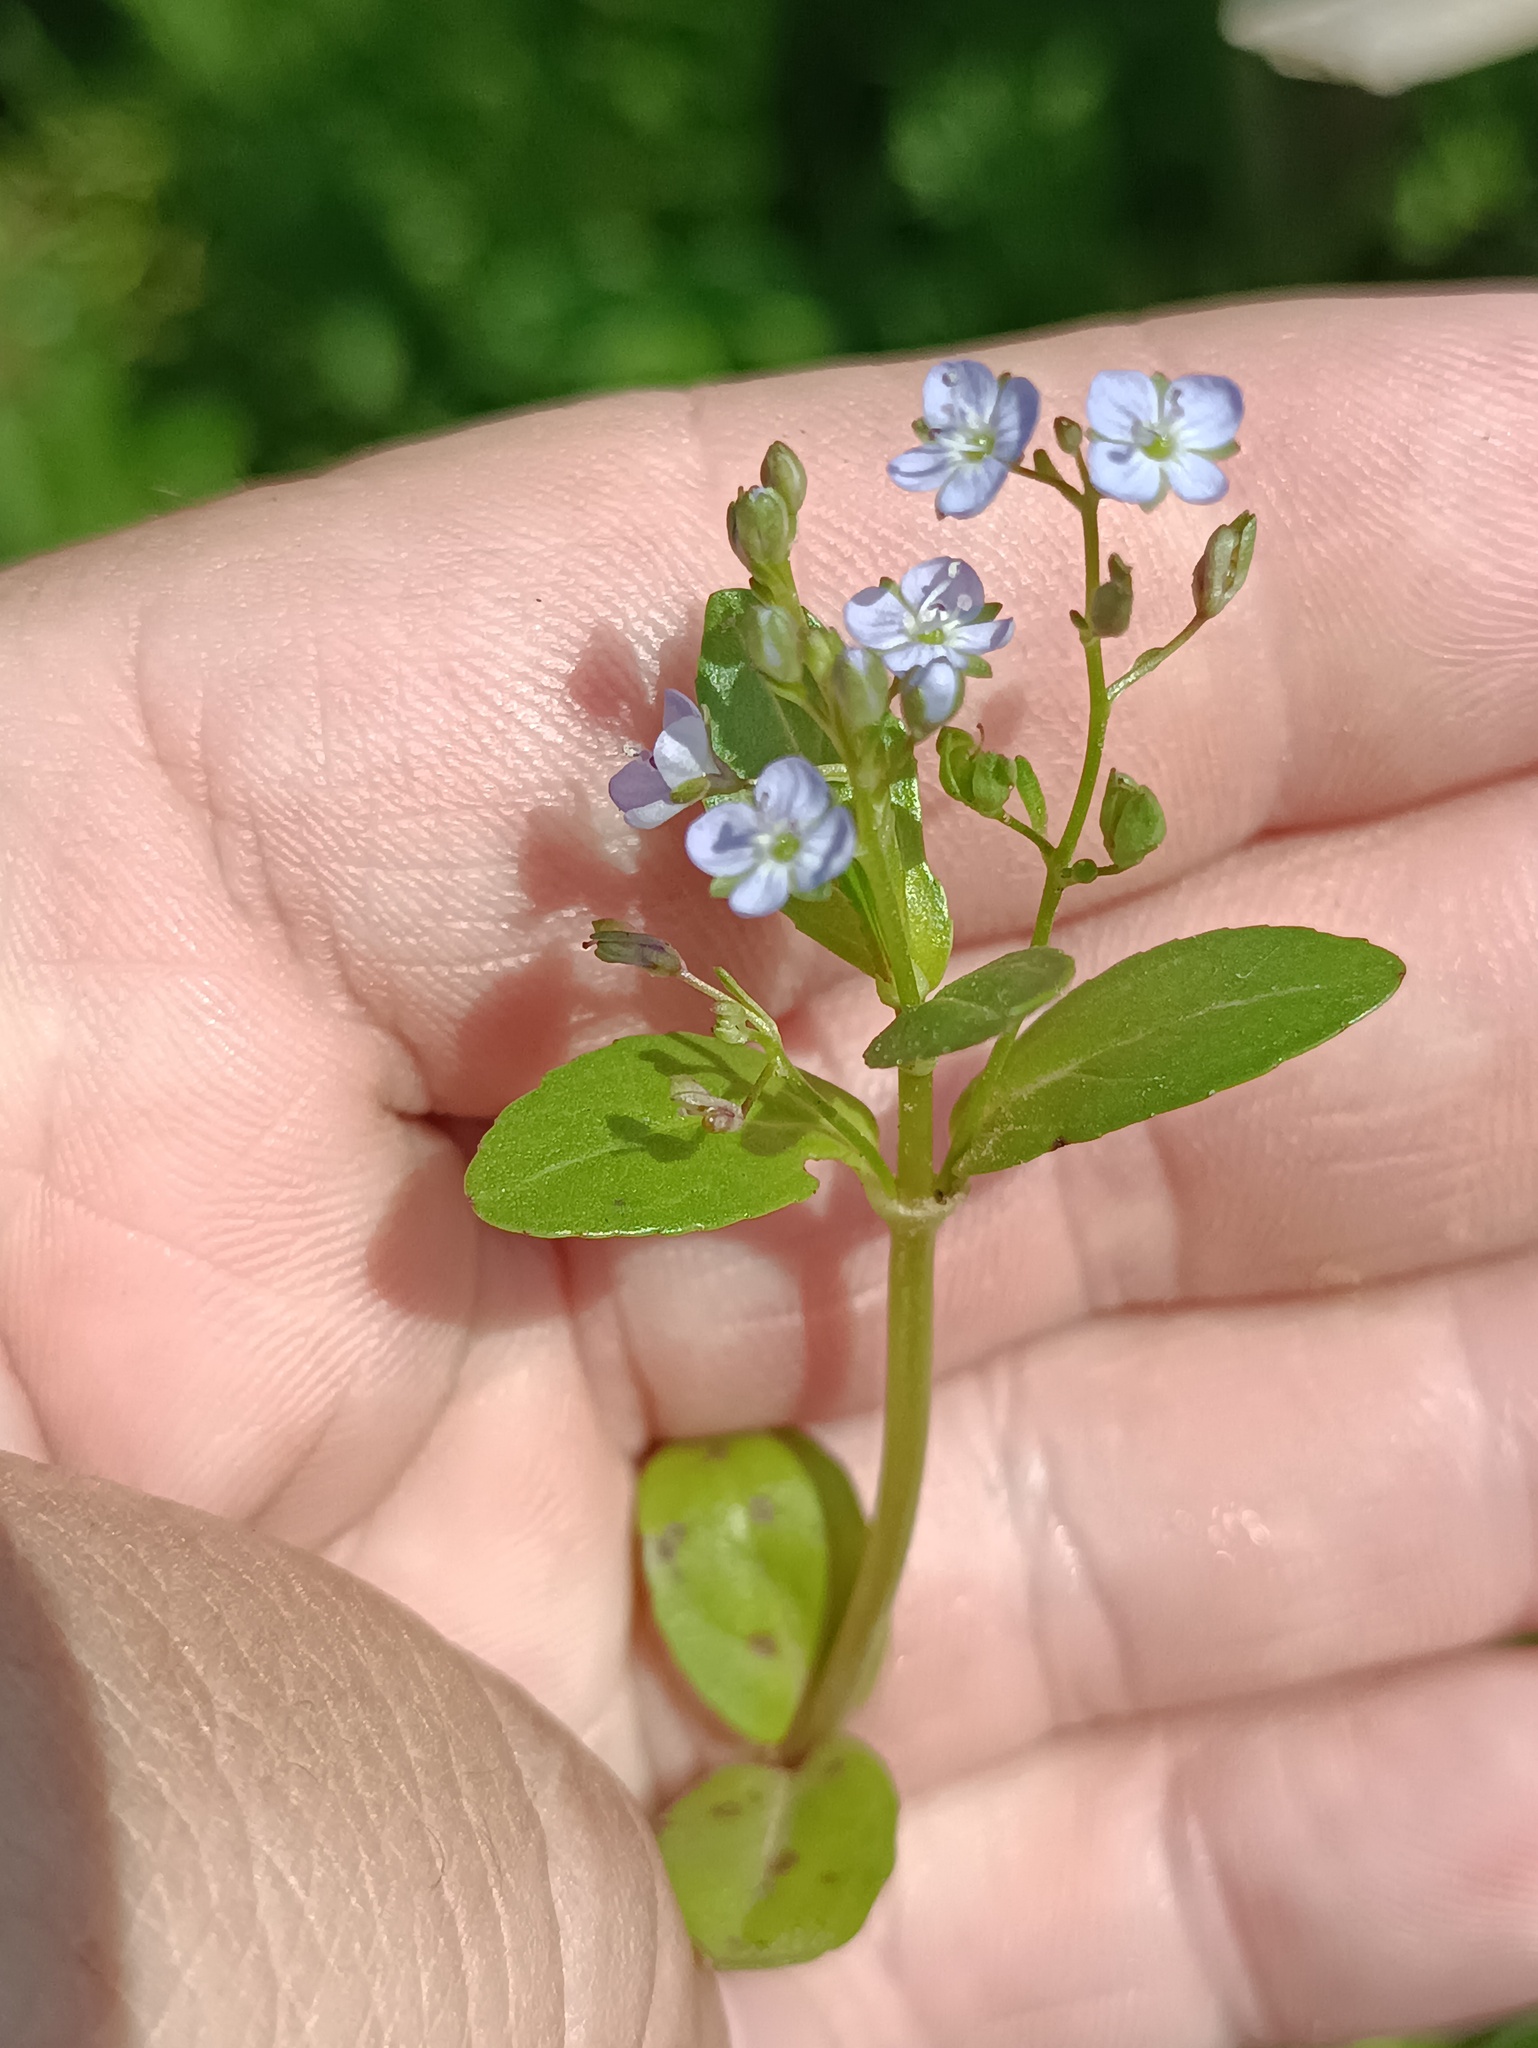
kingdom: Plantae
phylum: Tracheophyta
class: Magnoliopsida
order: Lamiales
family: Plantaginaceae
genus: Veronica
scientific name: Veronica beccabunga
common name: Brooklime
